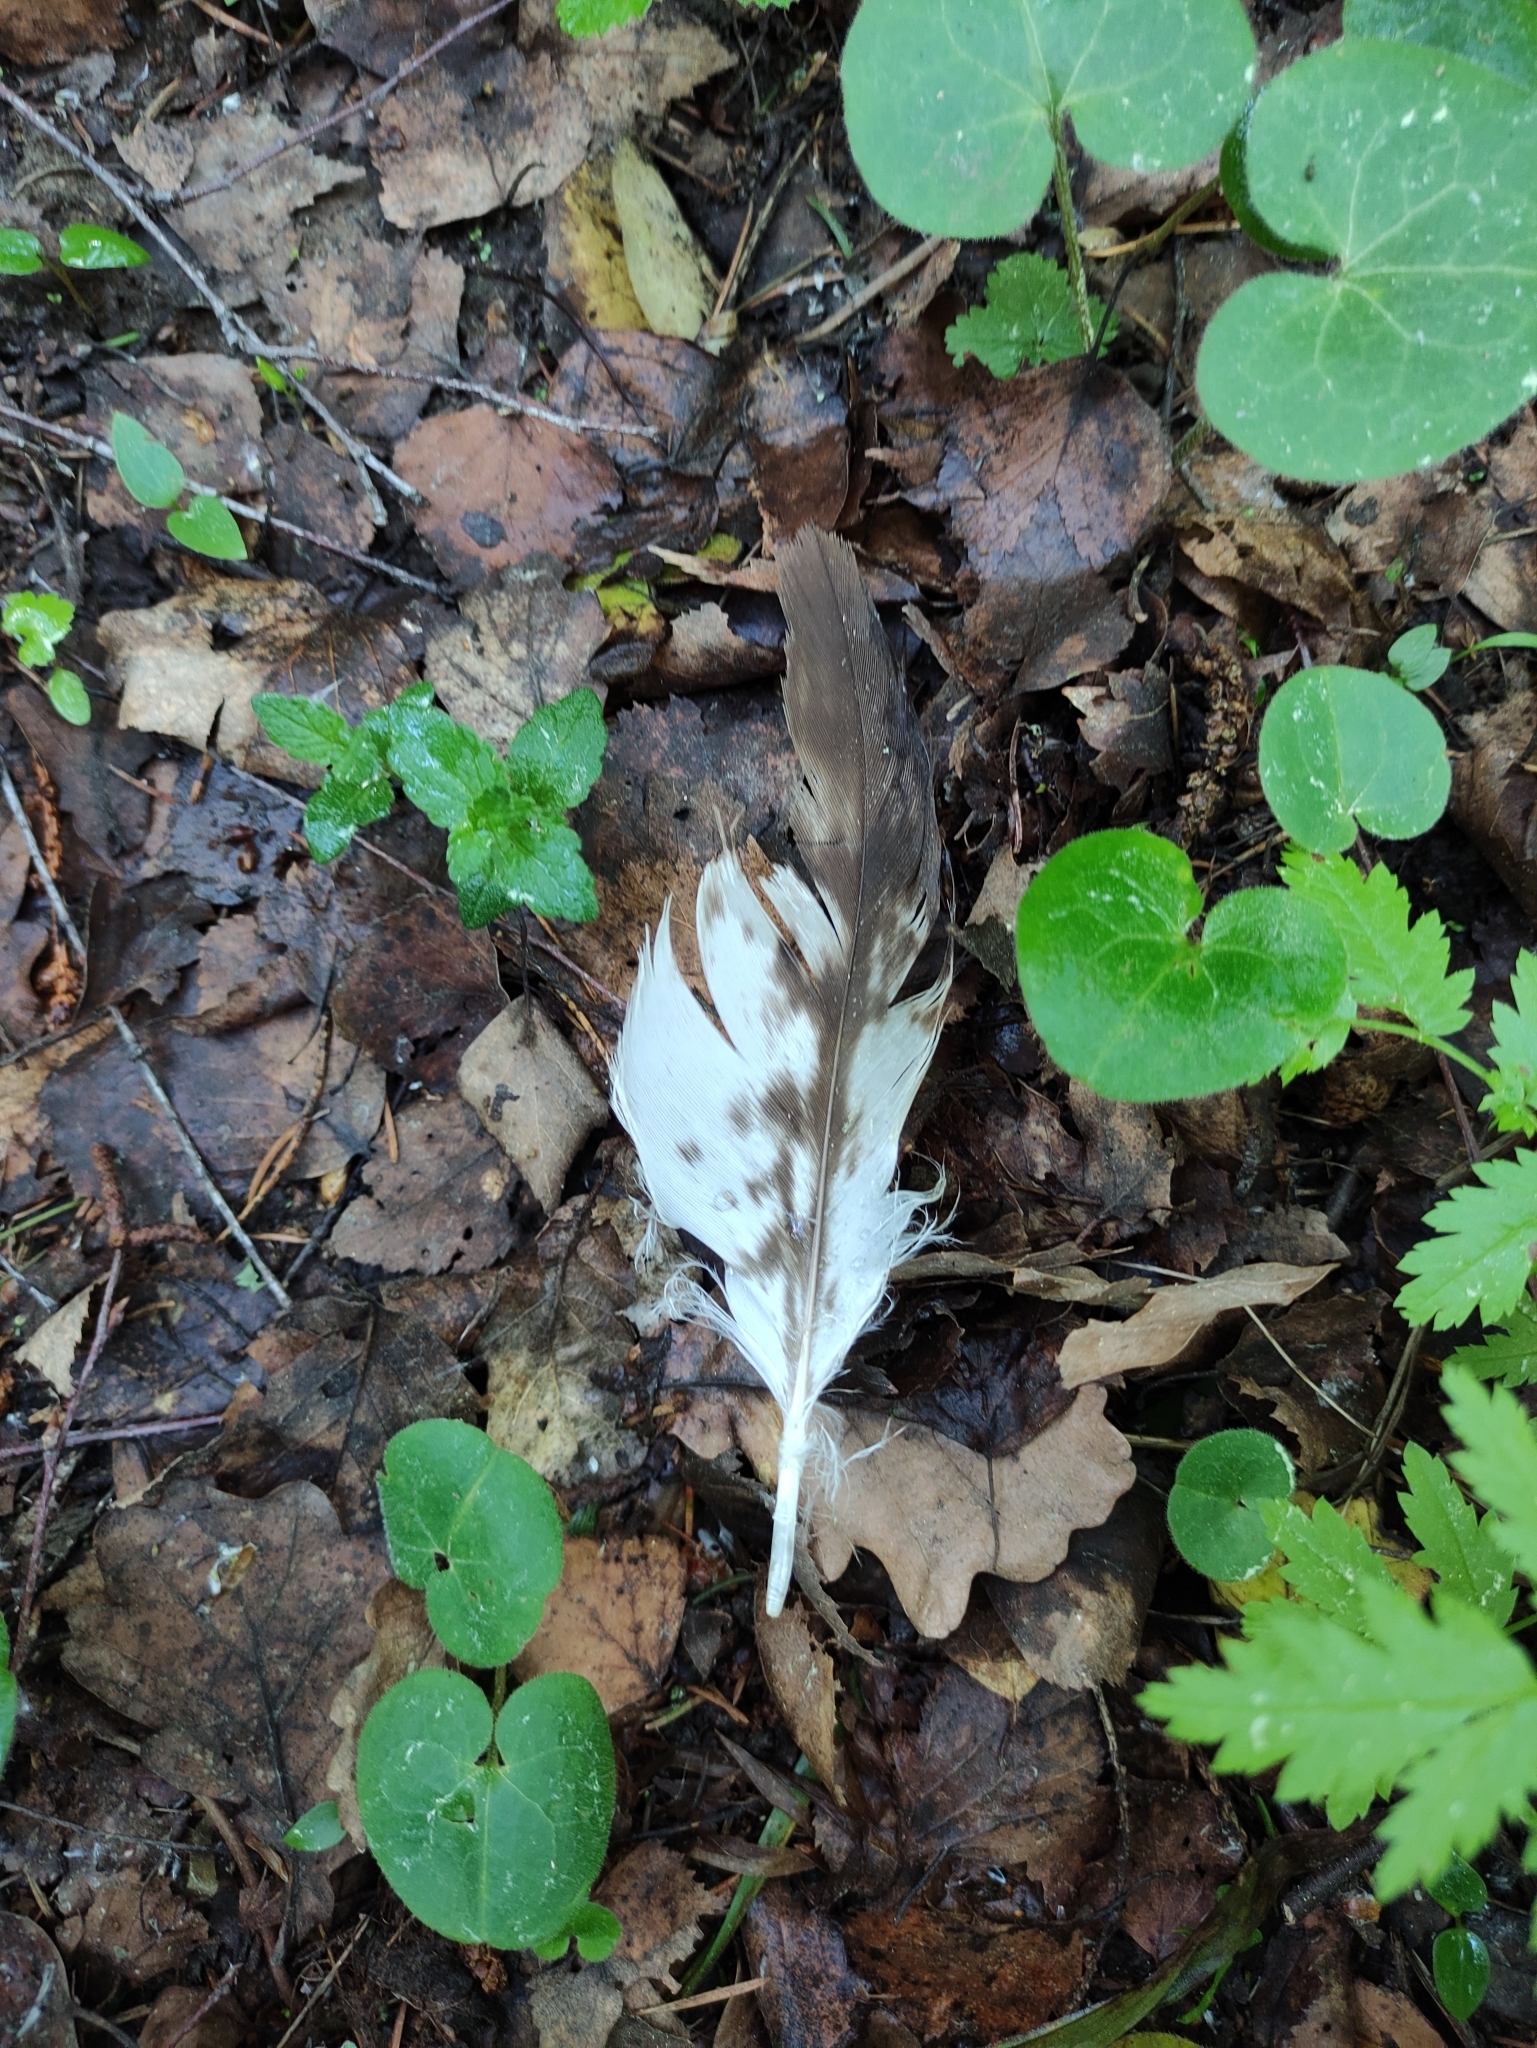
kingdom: Animalia
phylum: Chordata
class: Aves
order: Accipitriformes
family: Accipitridae
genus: Milvus
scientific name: Milvus migrans
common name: Black kite
